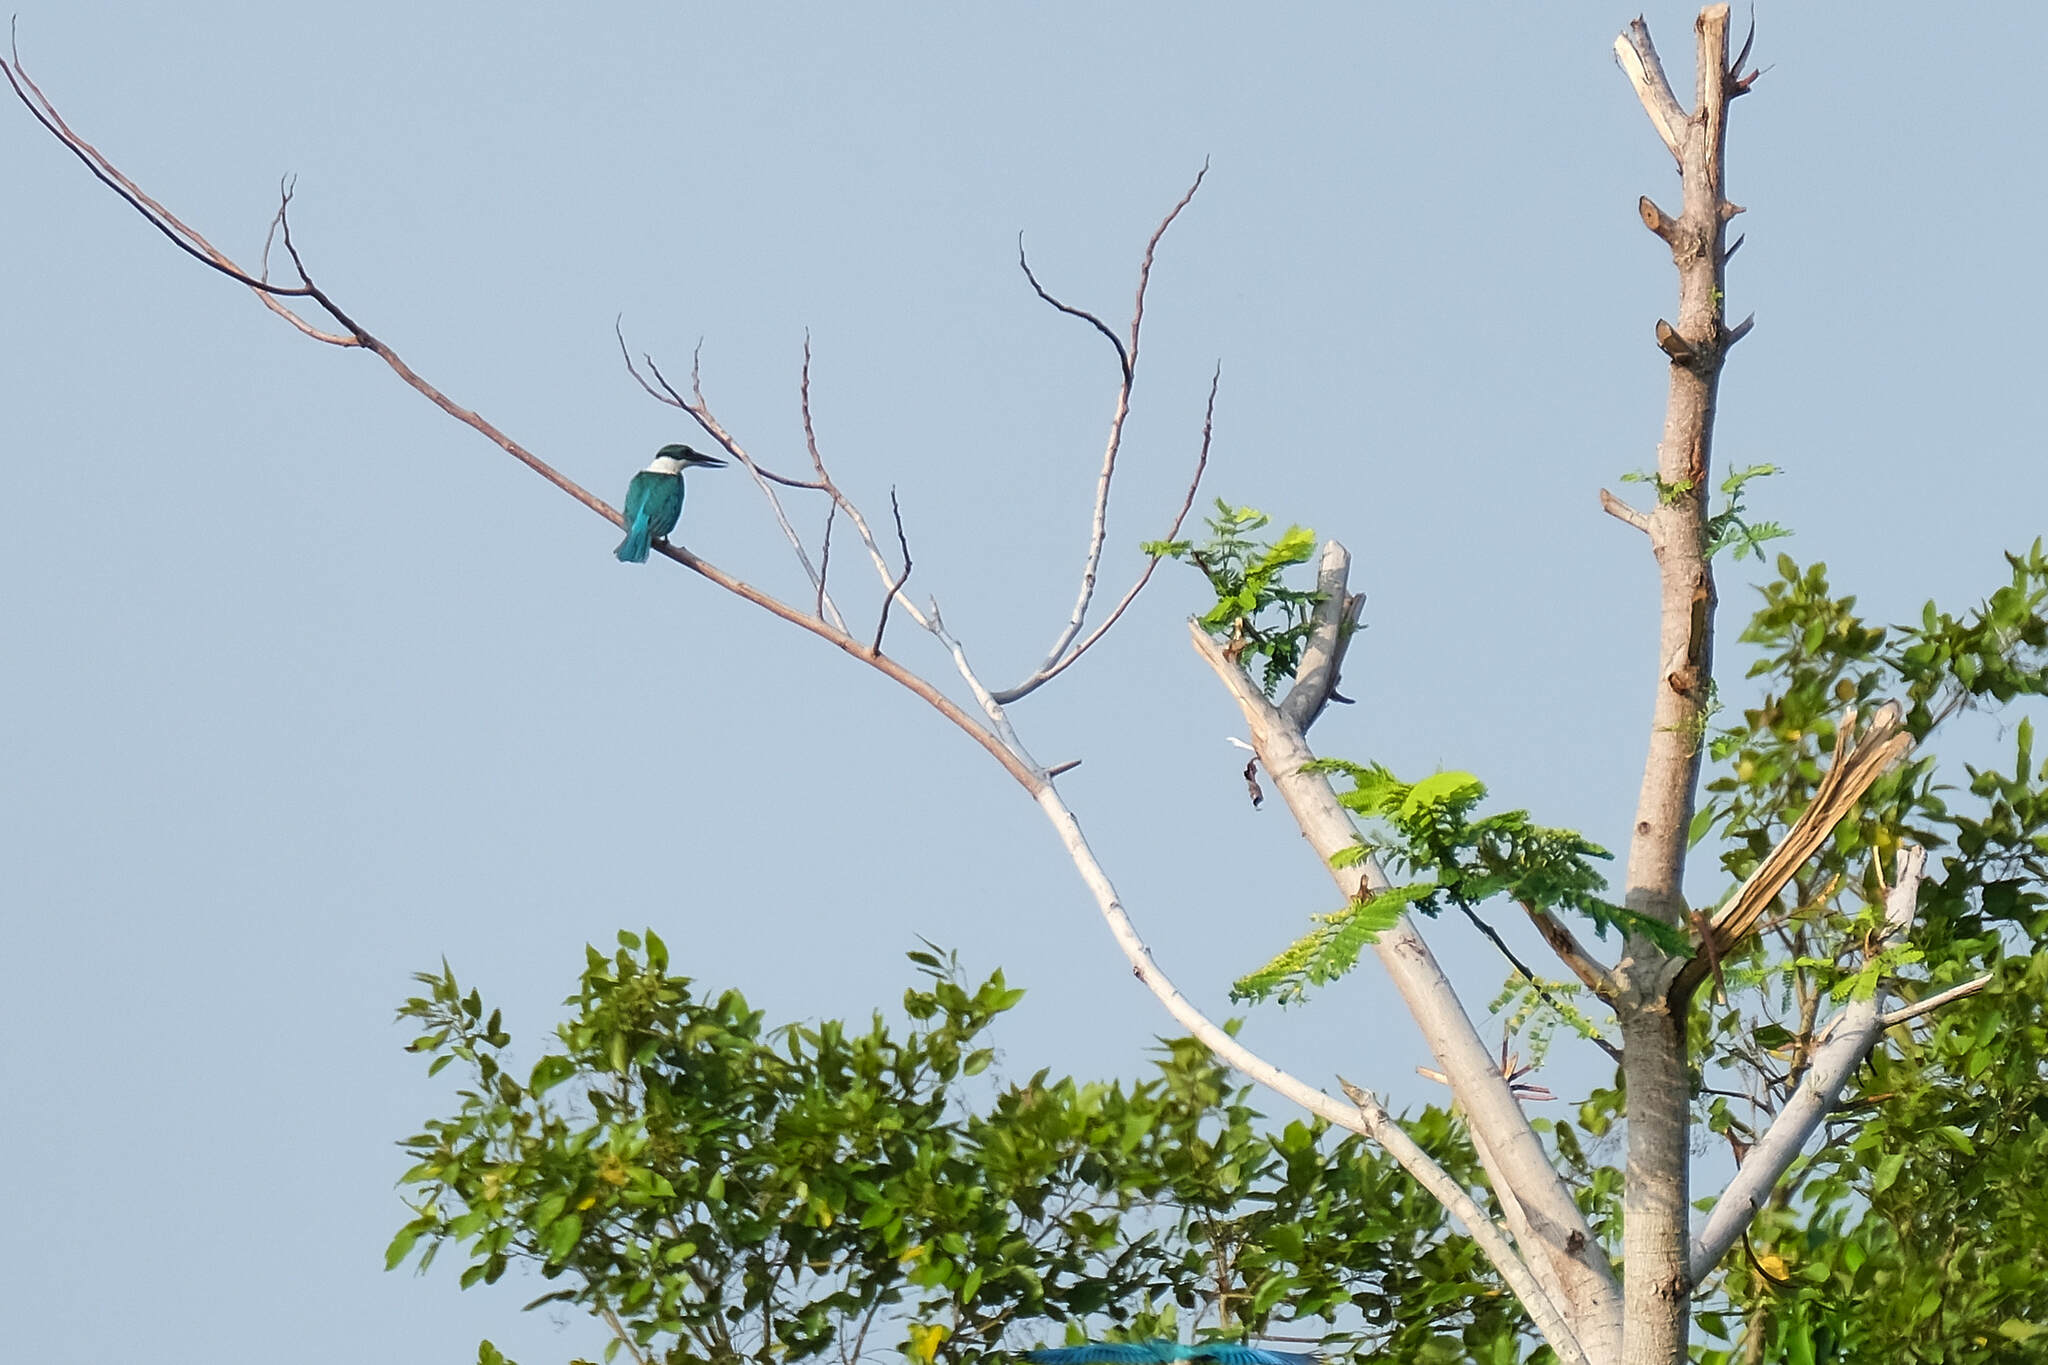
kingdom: Animalia
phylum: Chordata
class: Aves
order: Coraciiformes
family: Alcedinidae
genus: Todiramphus
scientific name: Todiramphus chloris
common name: Collared kingfisher
